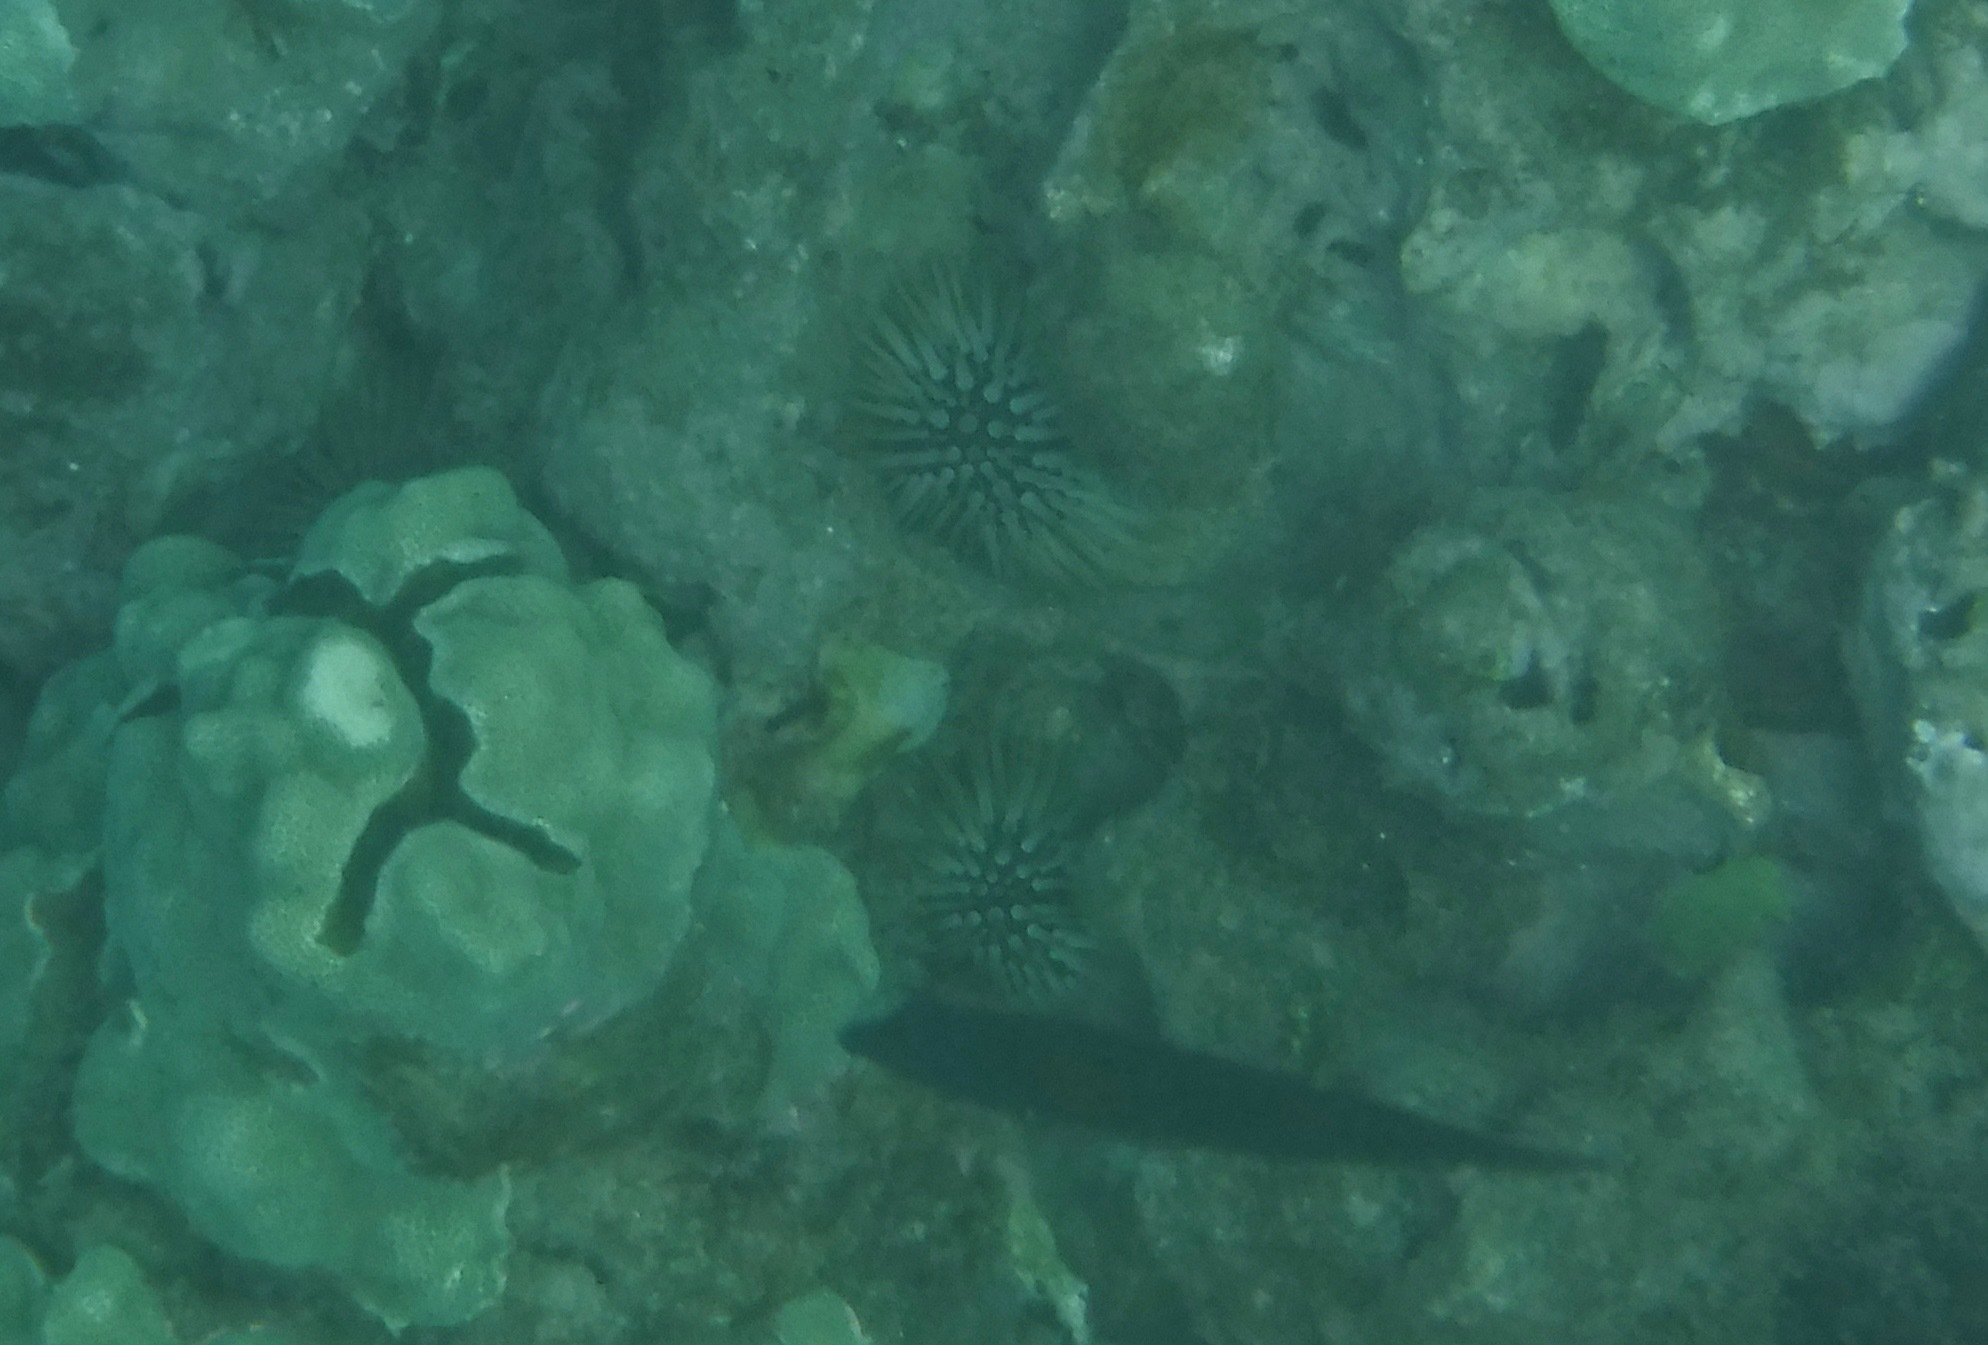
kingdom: Animalia
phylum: Echinodermata
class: Echinoidea
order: Camarodonta
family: Echinometridae
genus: Echinometra
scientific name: Echinometra mathaei
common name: Rock-boring urchin
